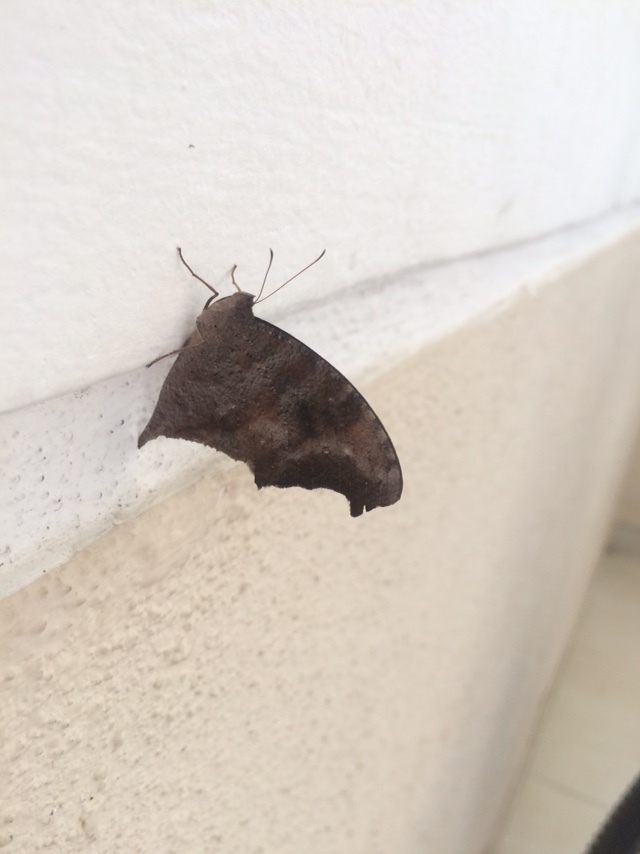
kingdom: Animalia
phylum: Arthropoda
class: Insecta
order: Lepidoptera
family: Nymphalidae
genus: Melanitis
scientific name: Melanitis leda
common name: Twilight brown
